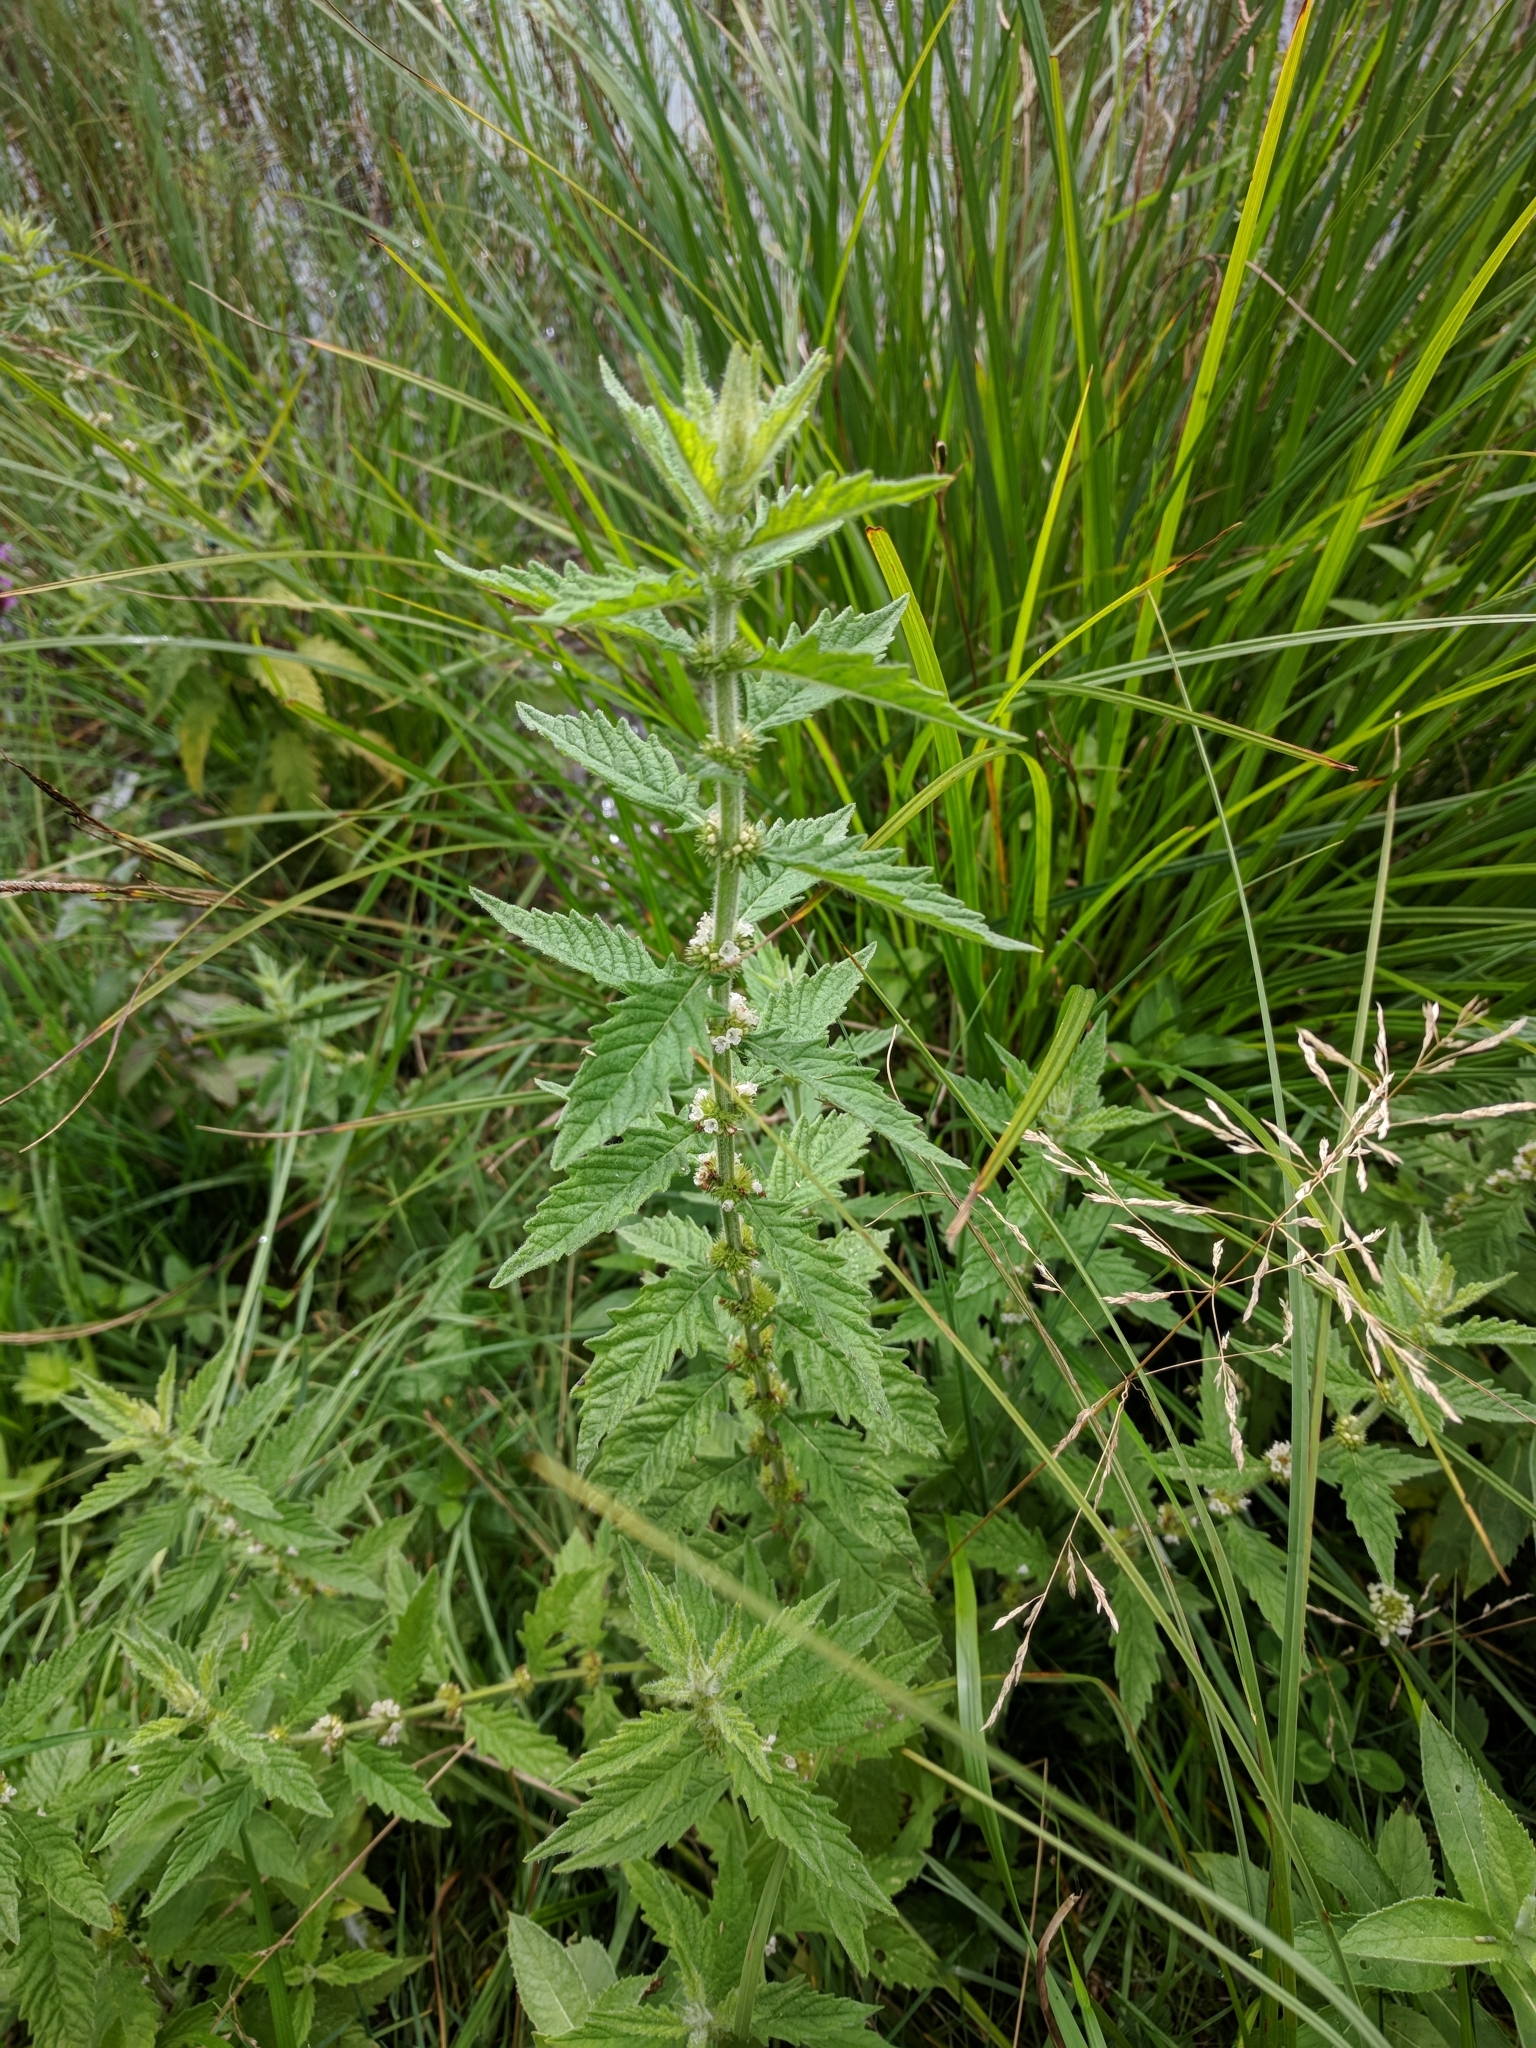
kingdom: Plantae
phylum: Tracheophyta
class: Magnoliopsida
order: Lamiales
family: Lamiaceae
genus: Lycopus
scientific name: Lycopus europaeus
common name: European bugleweed
